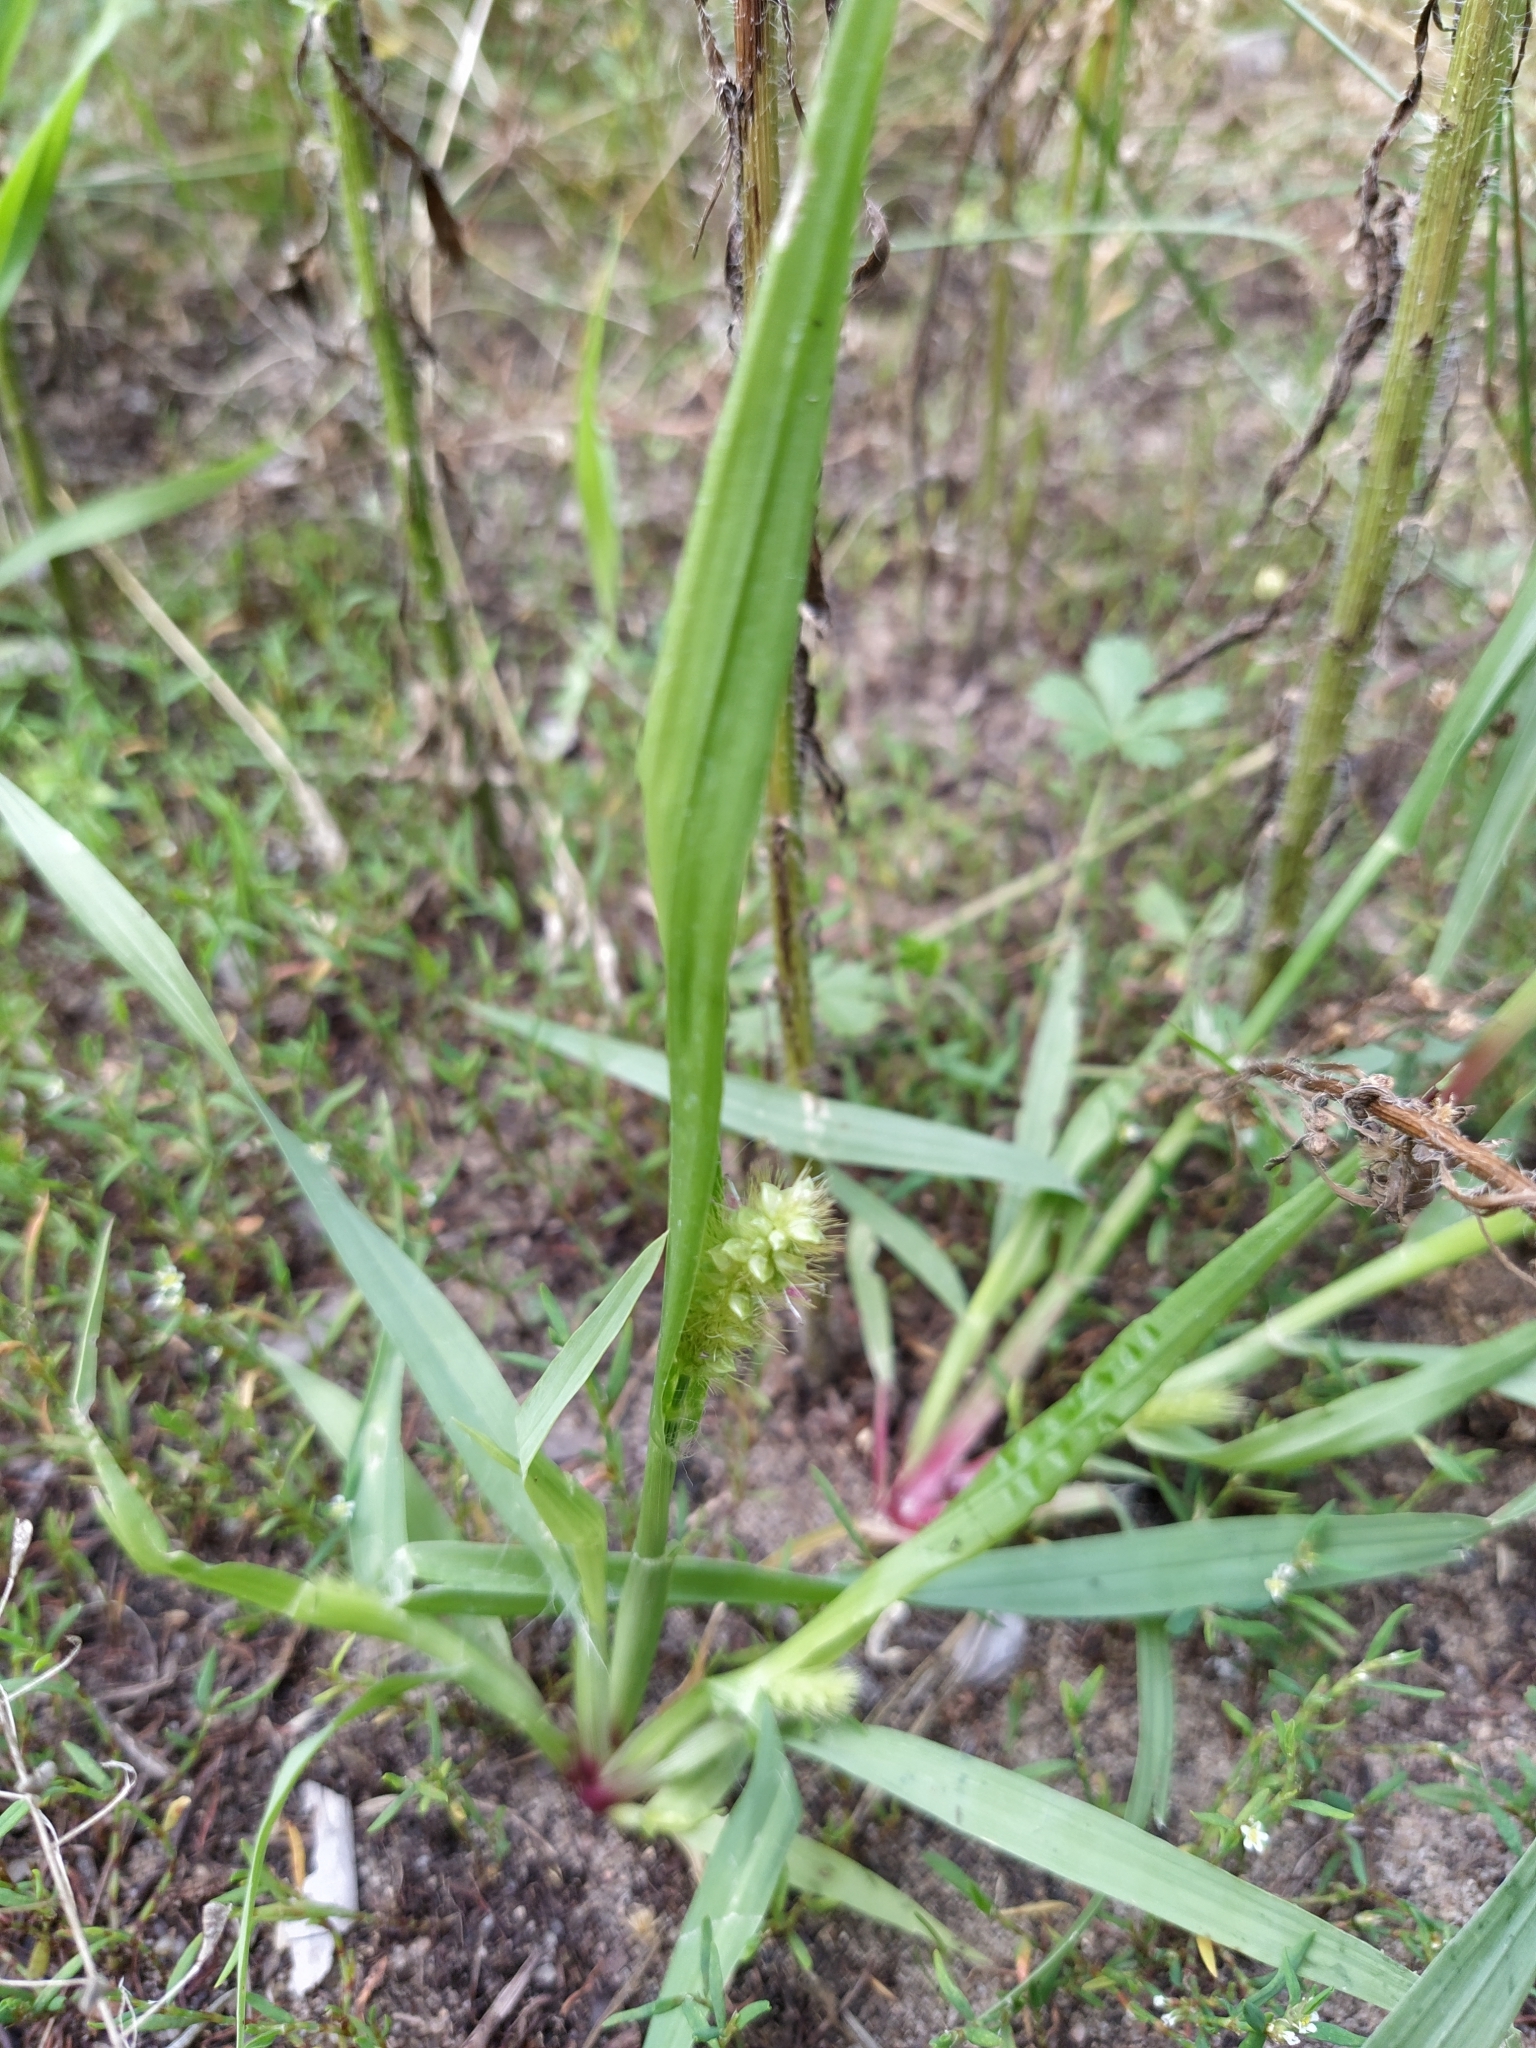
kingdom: Plantae
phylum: Tracheophyta
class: Liliopsida
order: Poales
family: Poaceae
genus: Setaria
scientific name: Setaria pumila
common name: Yellow bristle-grass
